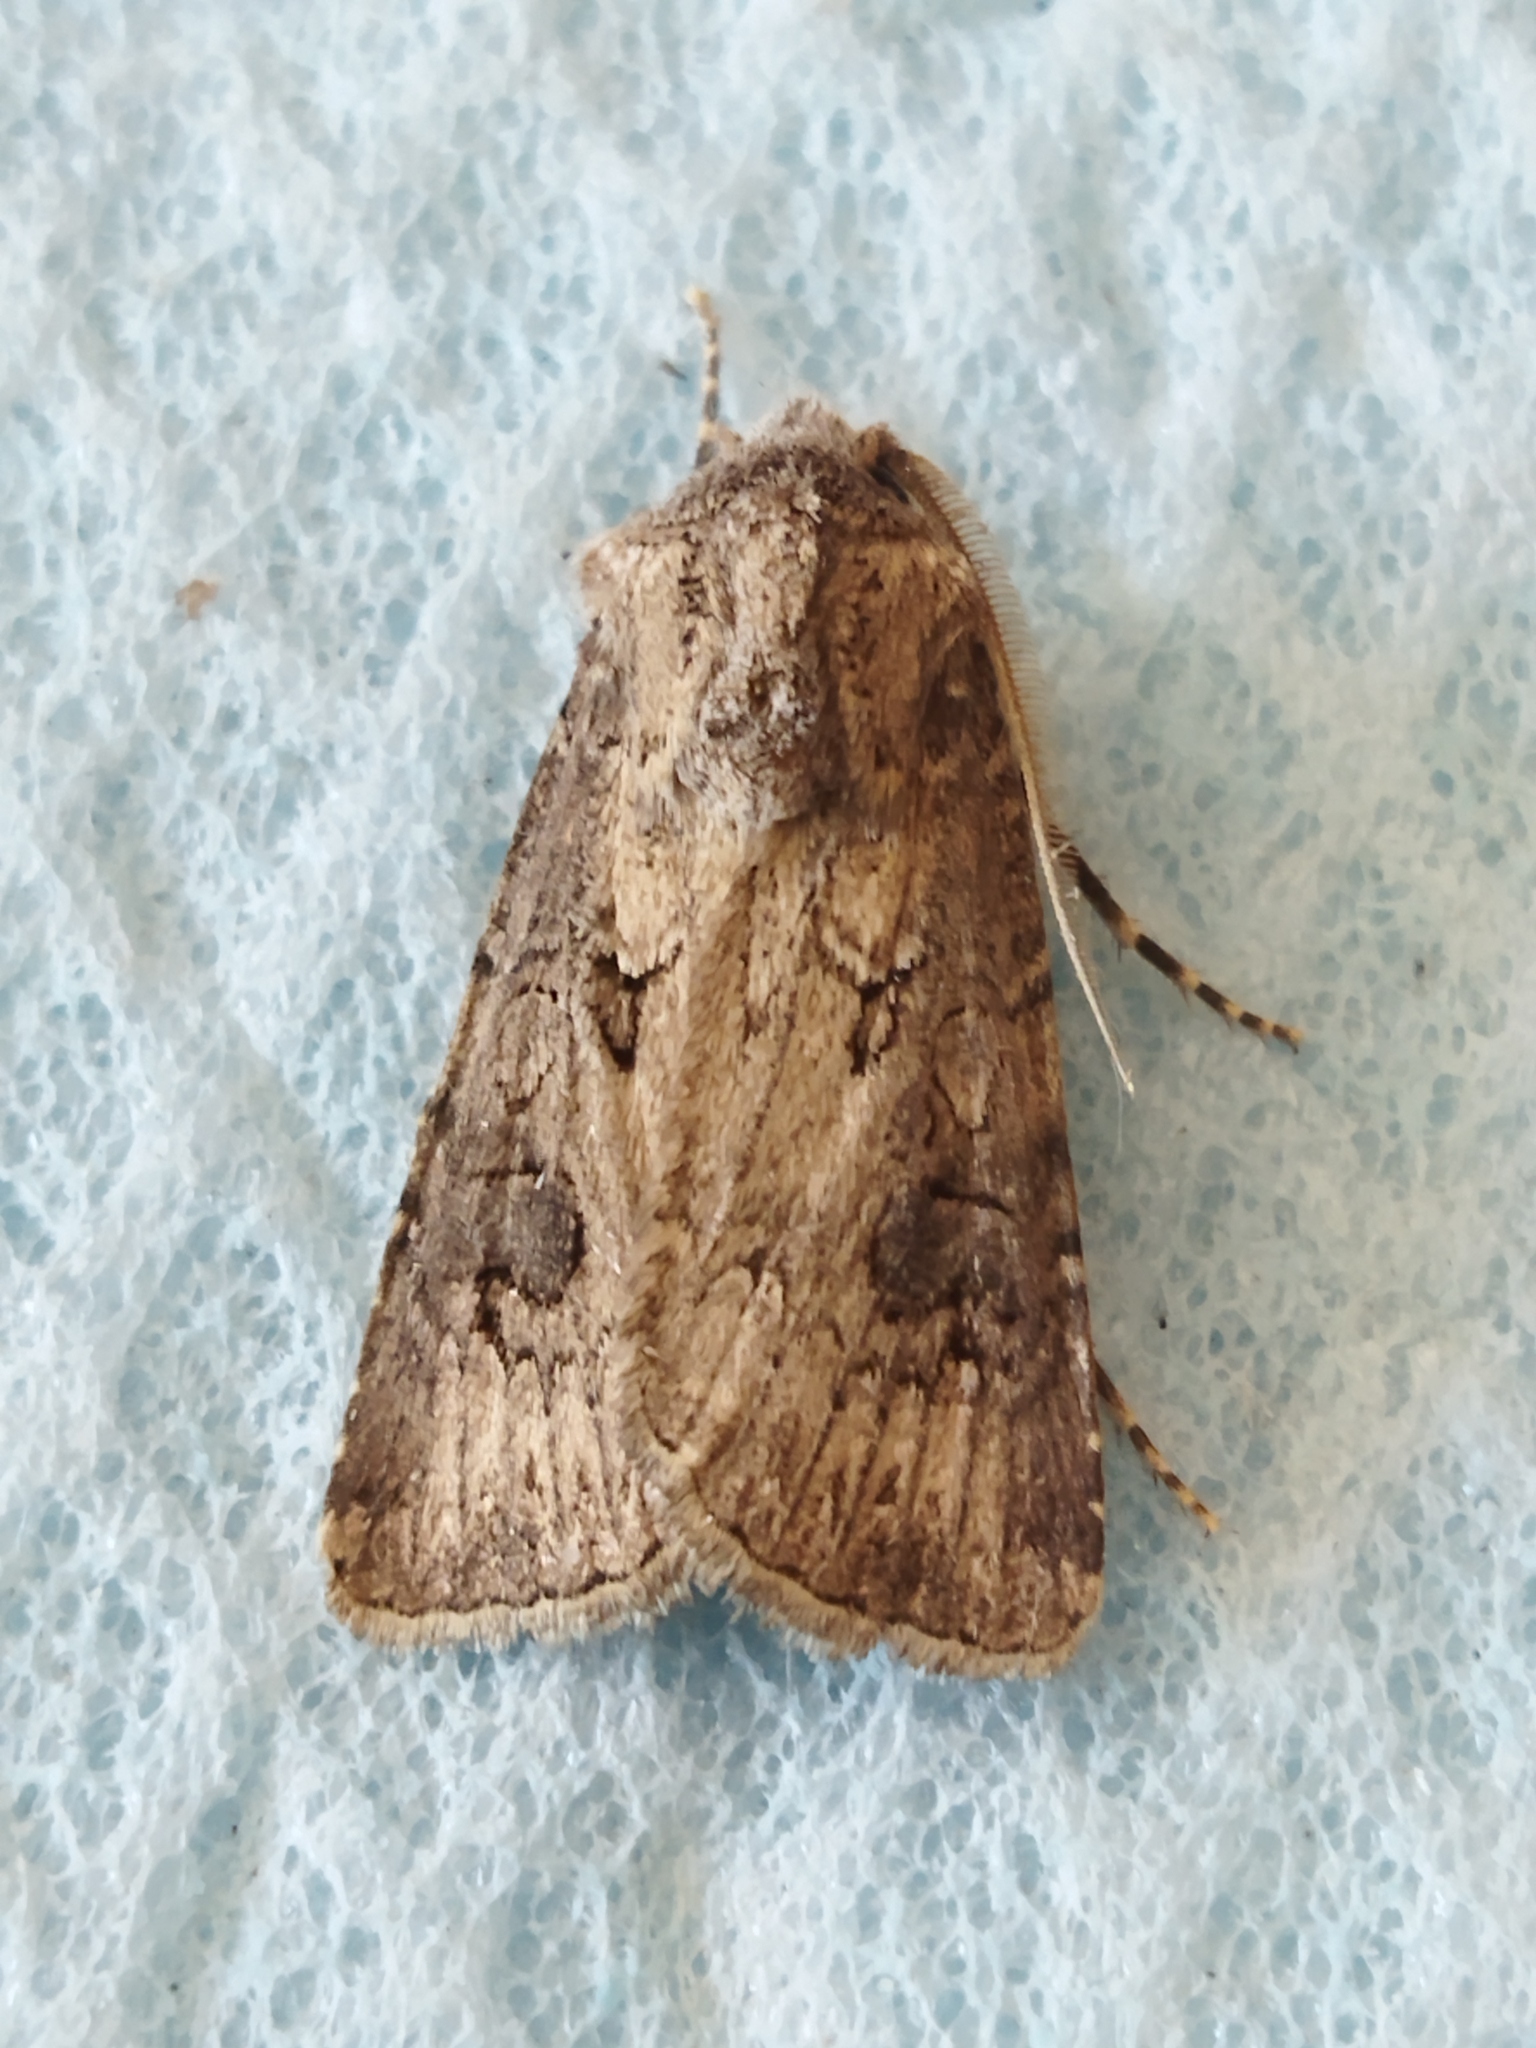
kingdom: Animalia
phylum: Arthropoda
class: Insecta
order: Lepidoptera
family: Noctuidae
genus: Agrotis
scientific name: Agrotis bigramma
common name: Great dart
